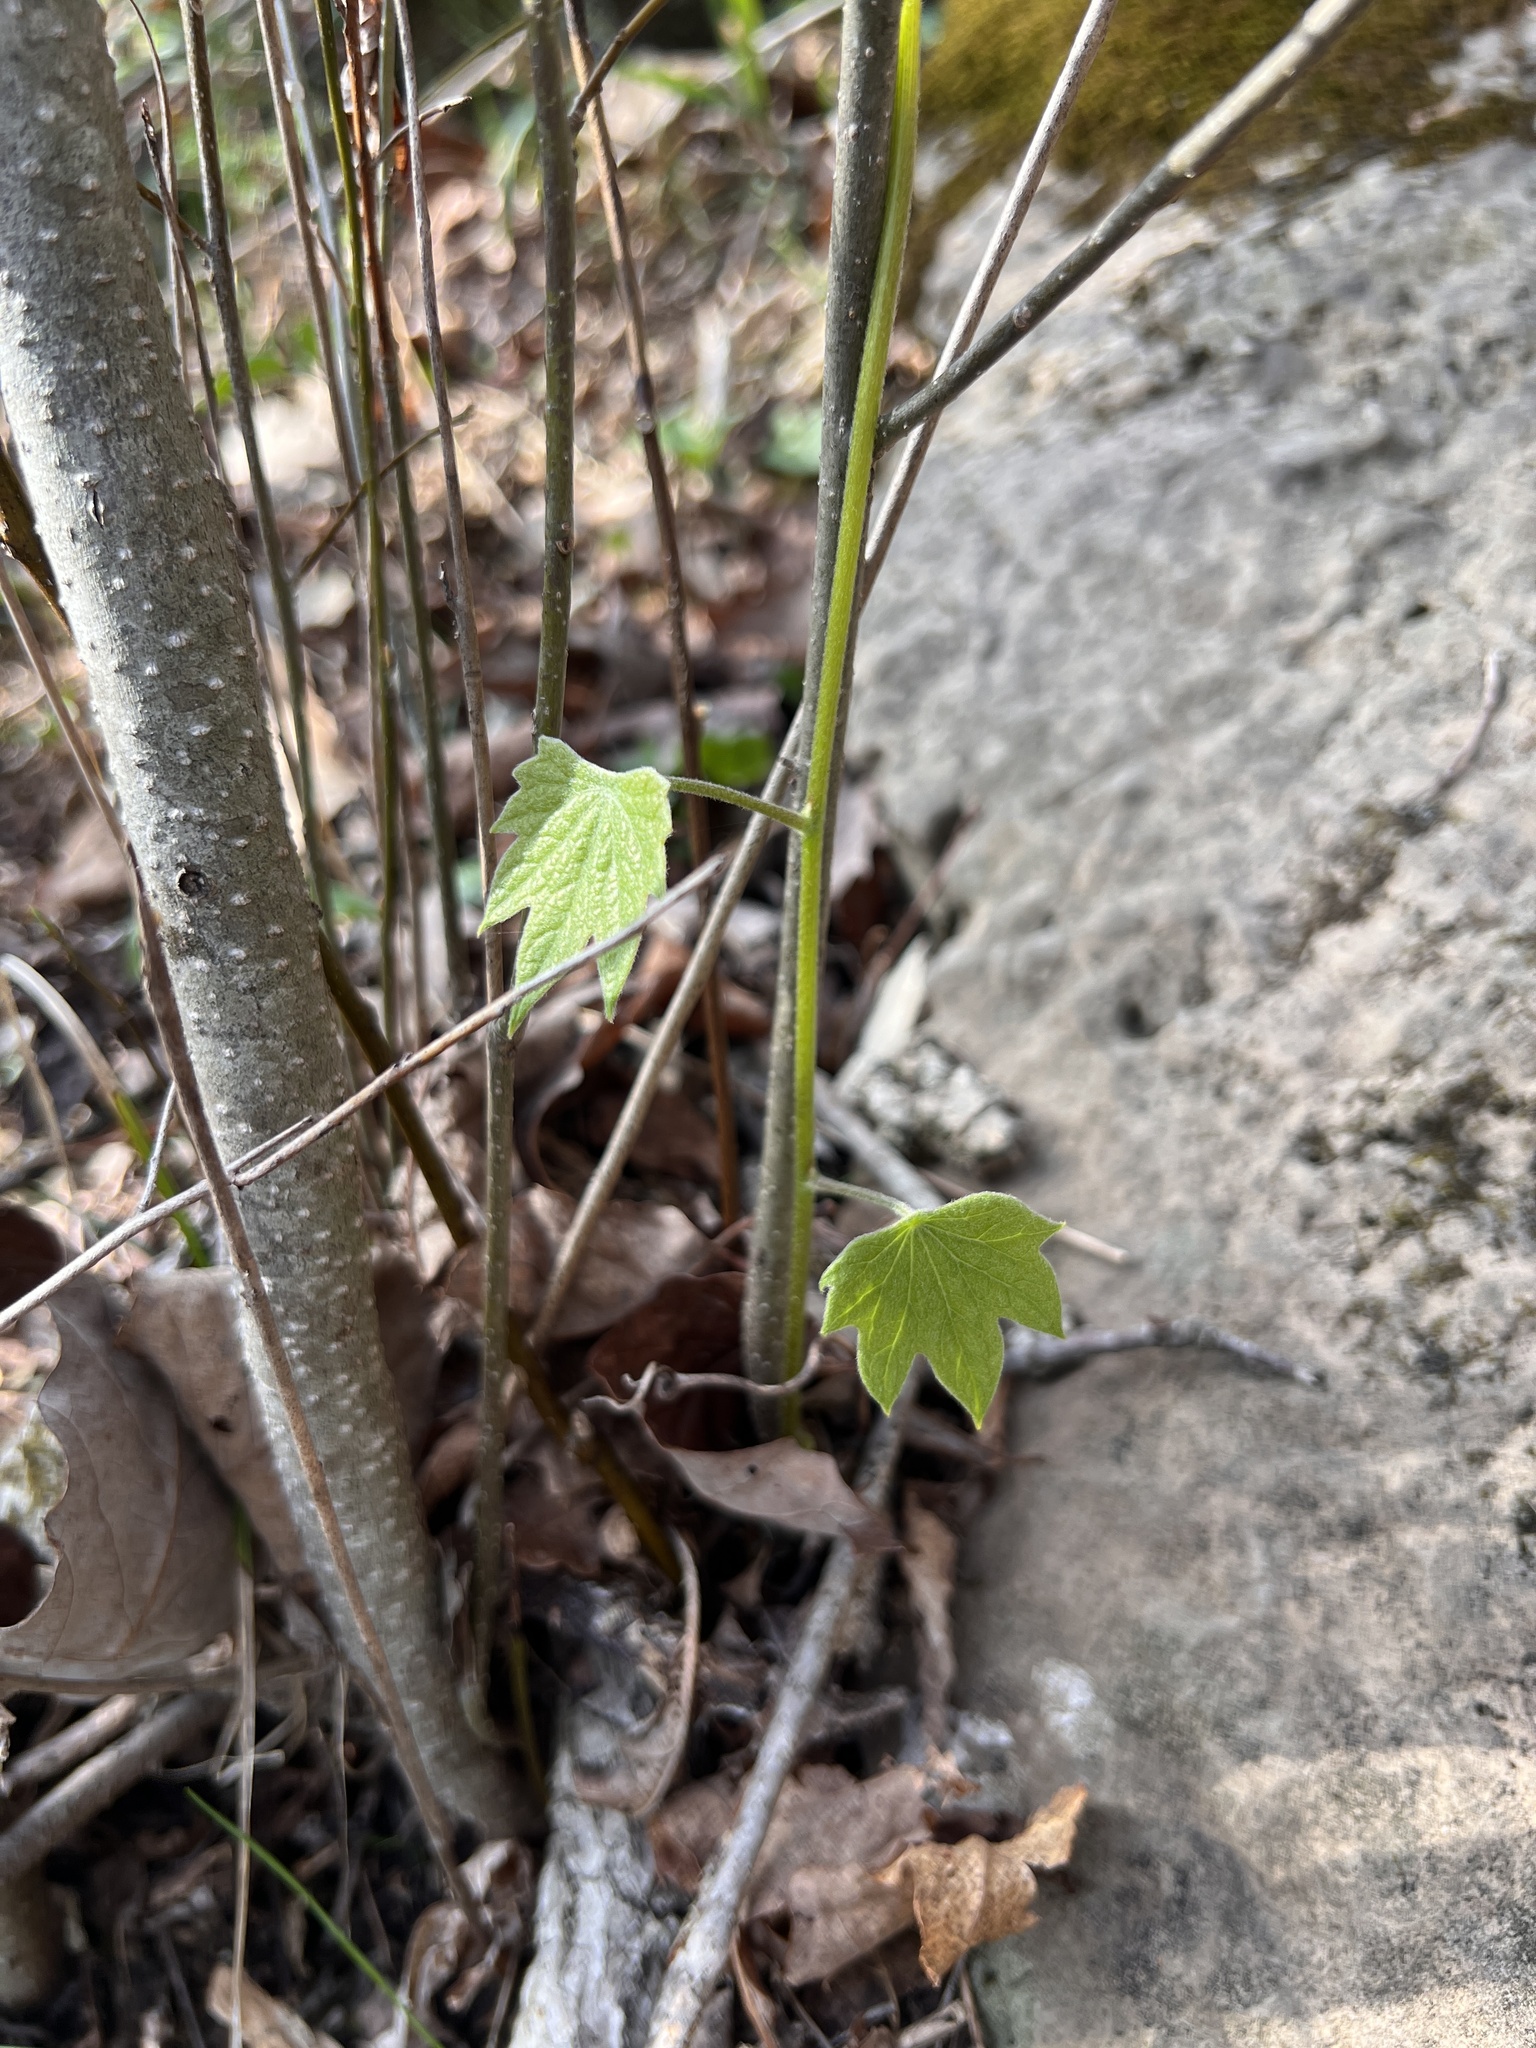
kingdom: Plantae
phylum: Tracheophyta
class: Magnoliopsida
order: Ranunculales
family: Menispermaceae
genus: Menispermum
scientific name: Menispermum canadense
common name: Moonseed
